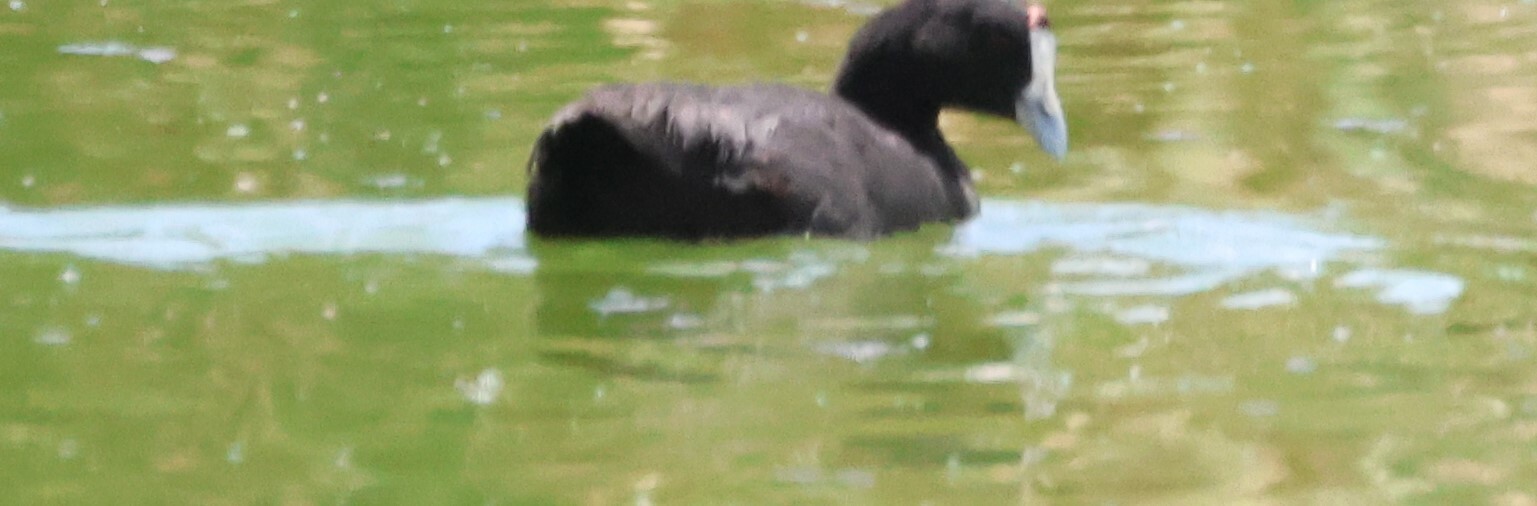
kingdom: Animalia
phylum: Chordata
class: Aves
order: Gruiformes
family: Rallidae
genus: Fulica
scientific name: Fulica cristata
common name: Red-knobbed coot
